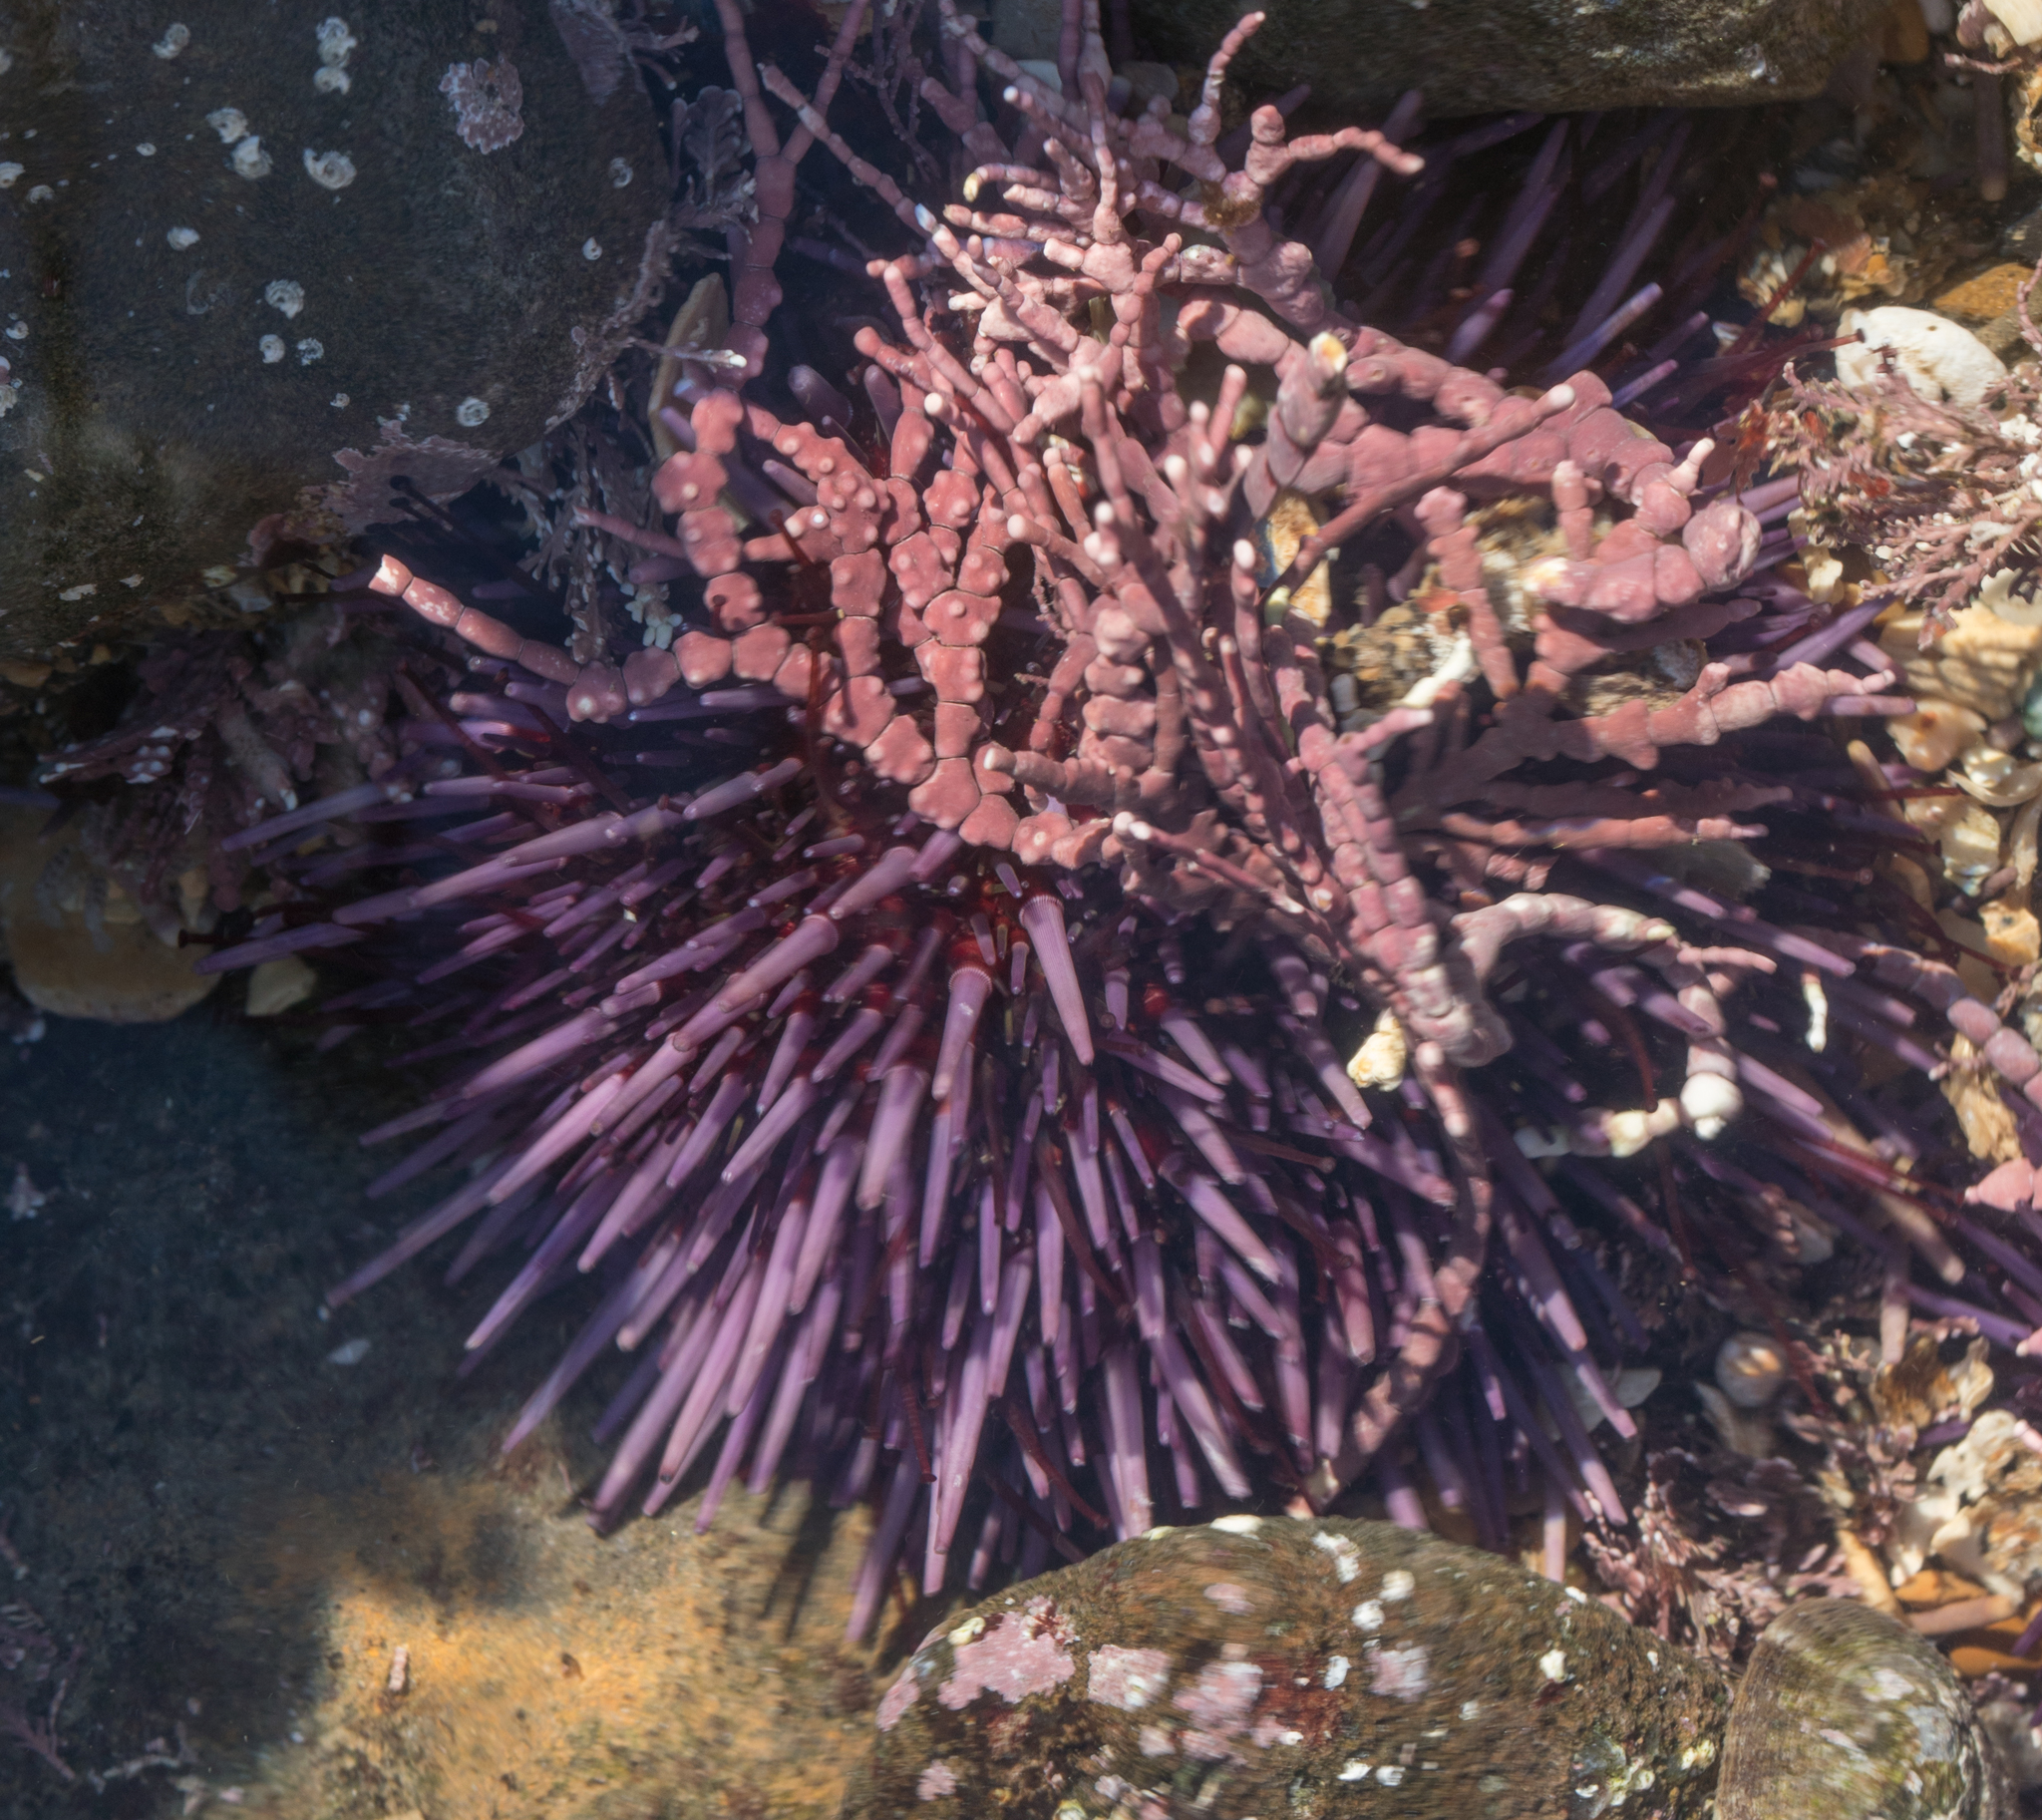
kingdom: Animalia
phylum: Echinodermata
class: Echinoidea
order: Camarodonta
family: Strongylocentrotidae
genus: Strongylocentrotus
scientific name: Strongylocentrotus purpuratus
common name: Purple sea urchin
